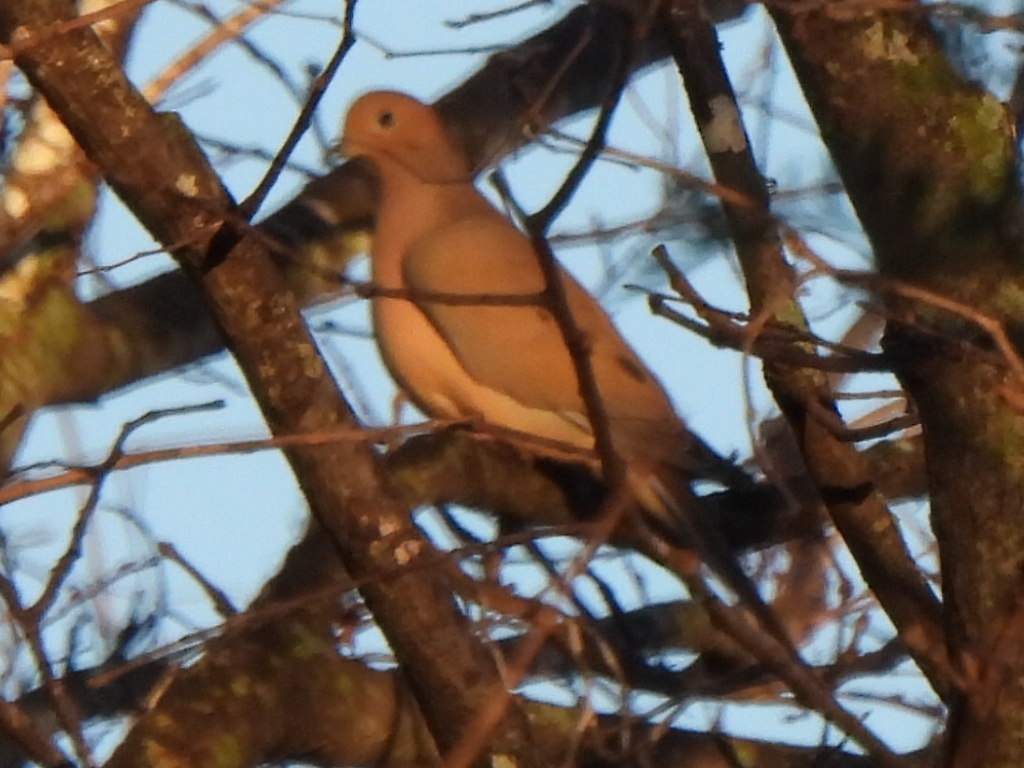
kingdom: Animalia
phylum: Chordata
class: Aves
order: Columbiformes
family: Columbidae
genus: Zenaida
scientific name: Zenaida macroura
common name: Mourning dove
